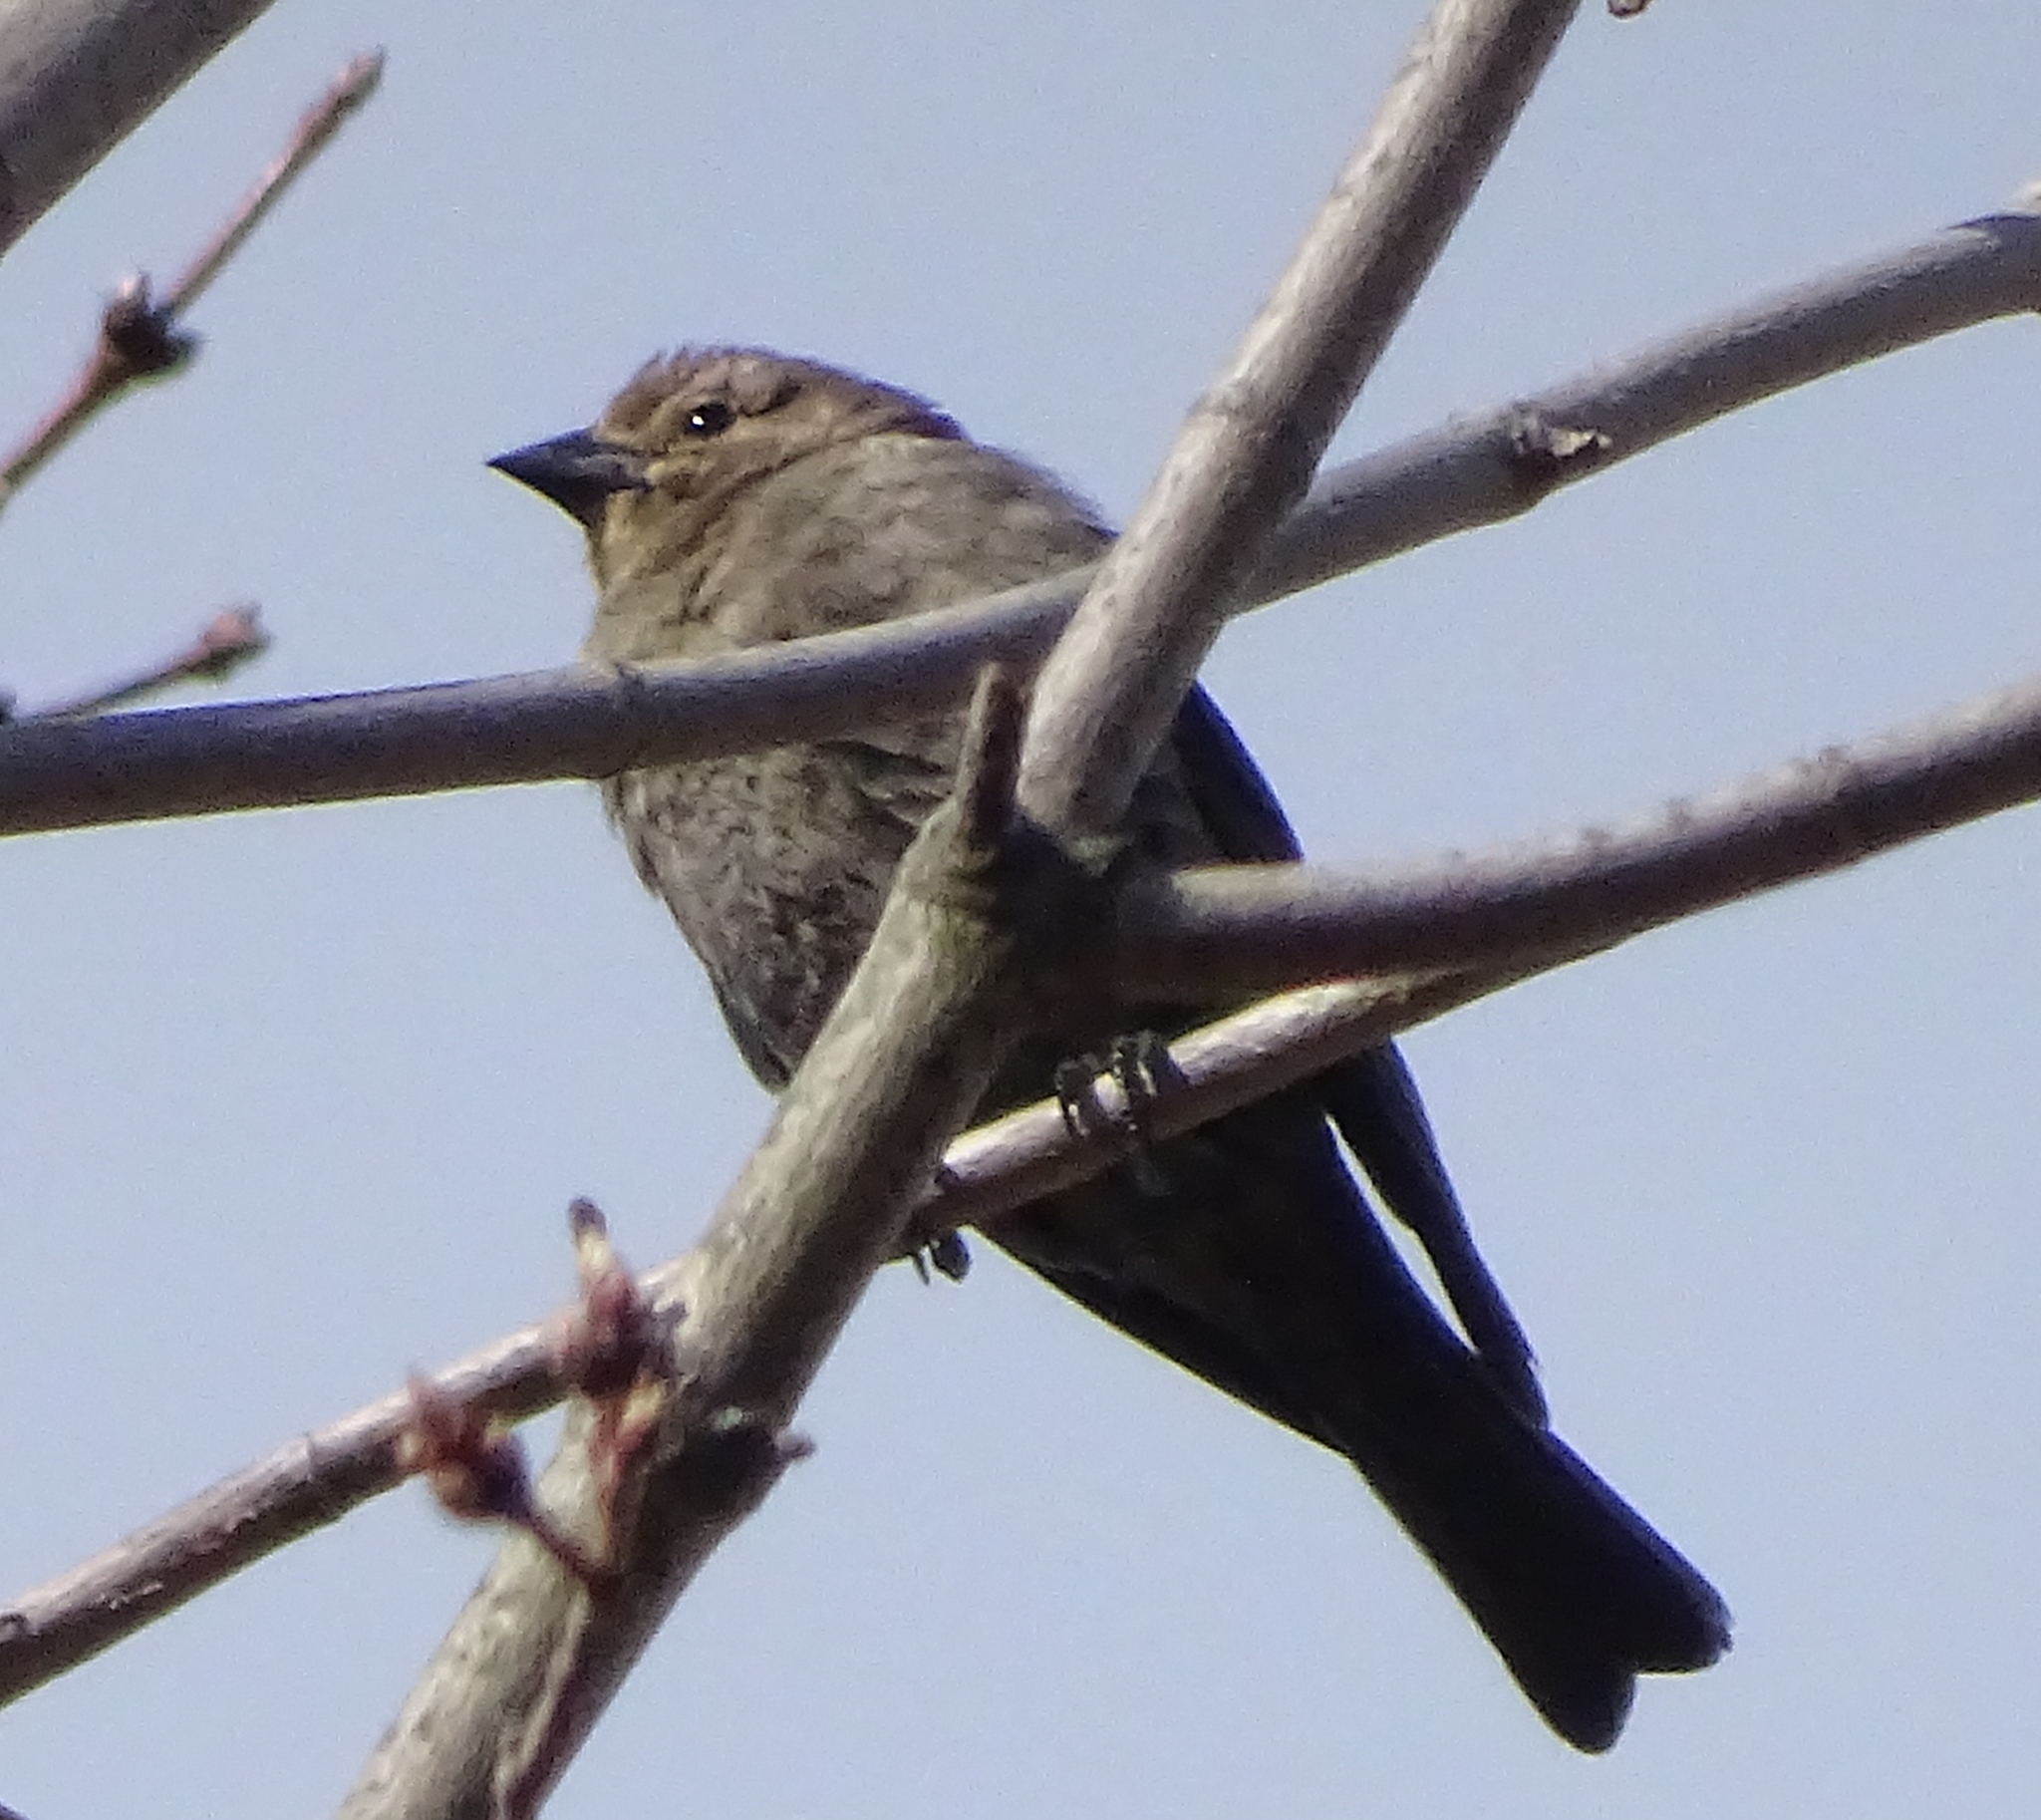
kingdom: Animalia
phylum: Chordata
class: Aves
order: Passeriformes
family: Icteridae
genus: Molothrus
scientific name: Molothrus ater
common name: Brown-headed cowbird
